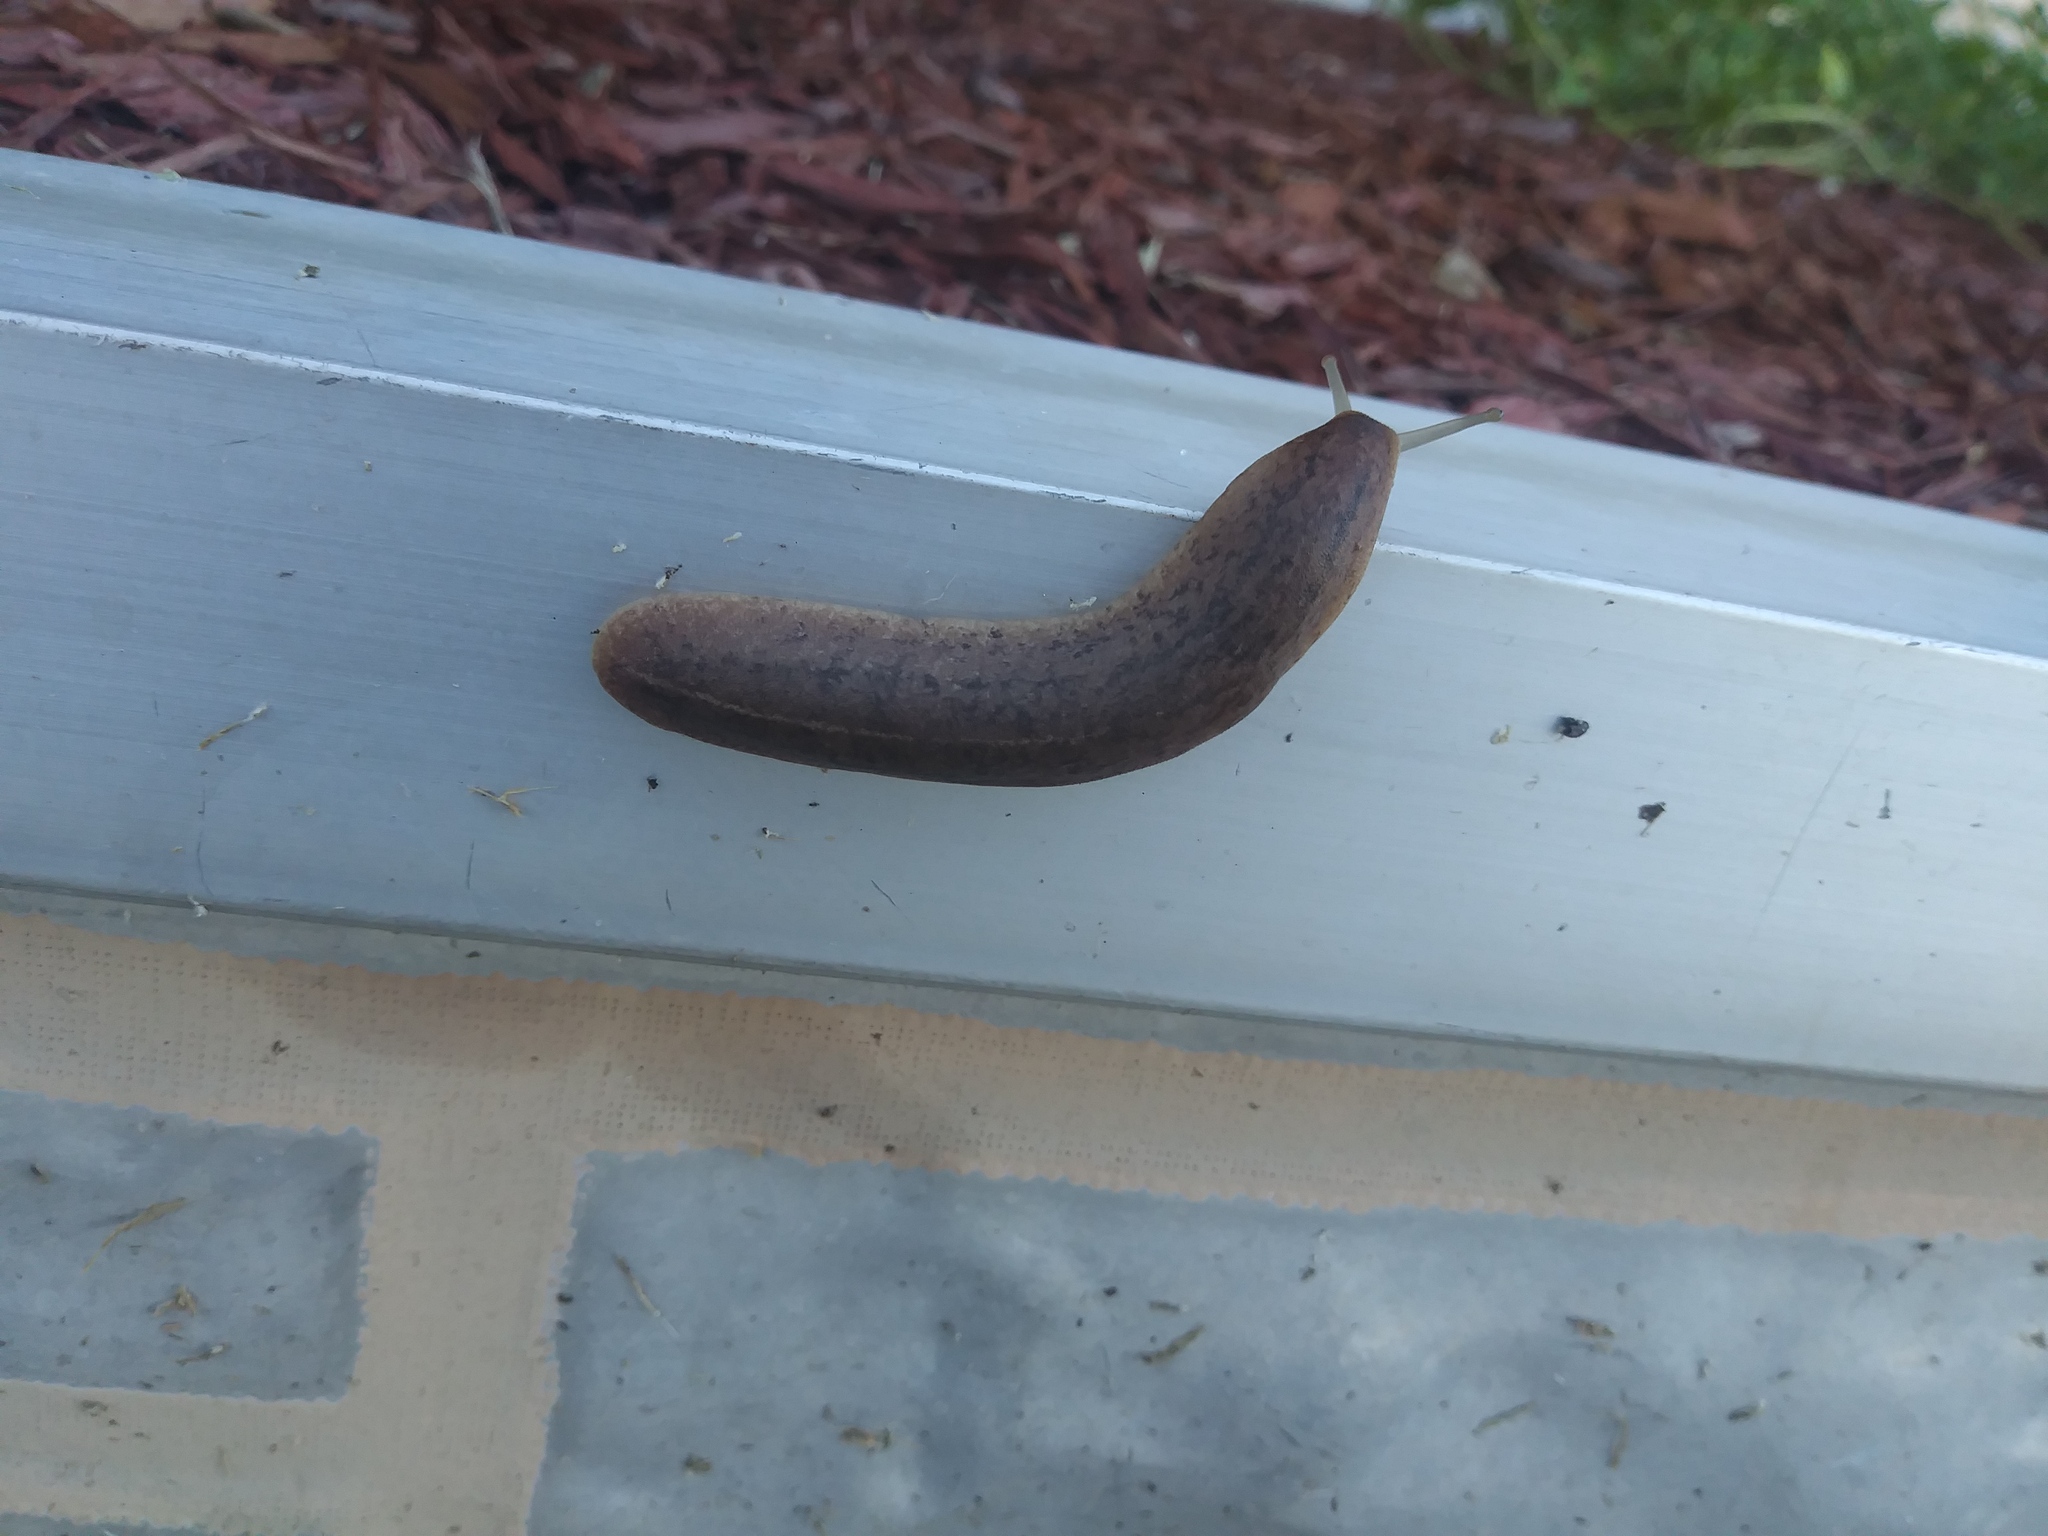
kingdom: Animalia
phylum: Mollusca
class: Gastropoda
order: Systellommatophora
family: Veronicellidae
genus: Leidyula
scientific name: Leidyula floridana
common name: Florida leatherleaf
